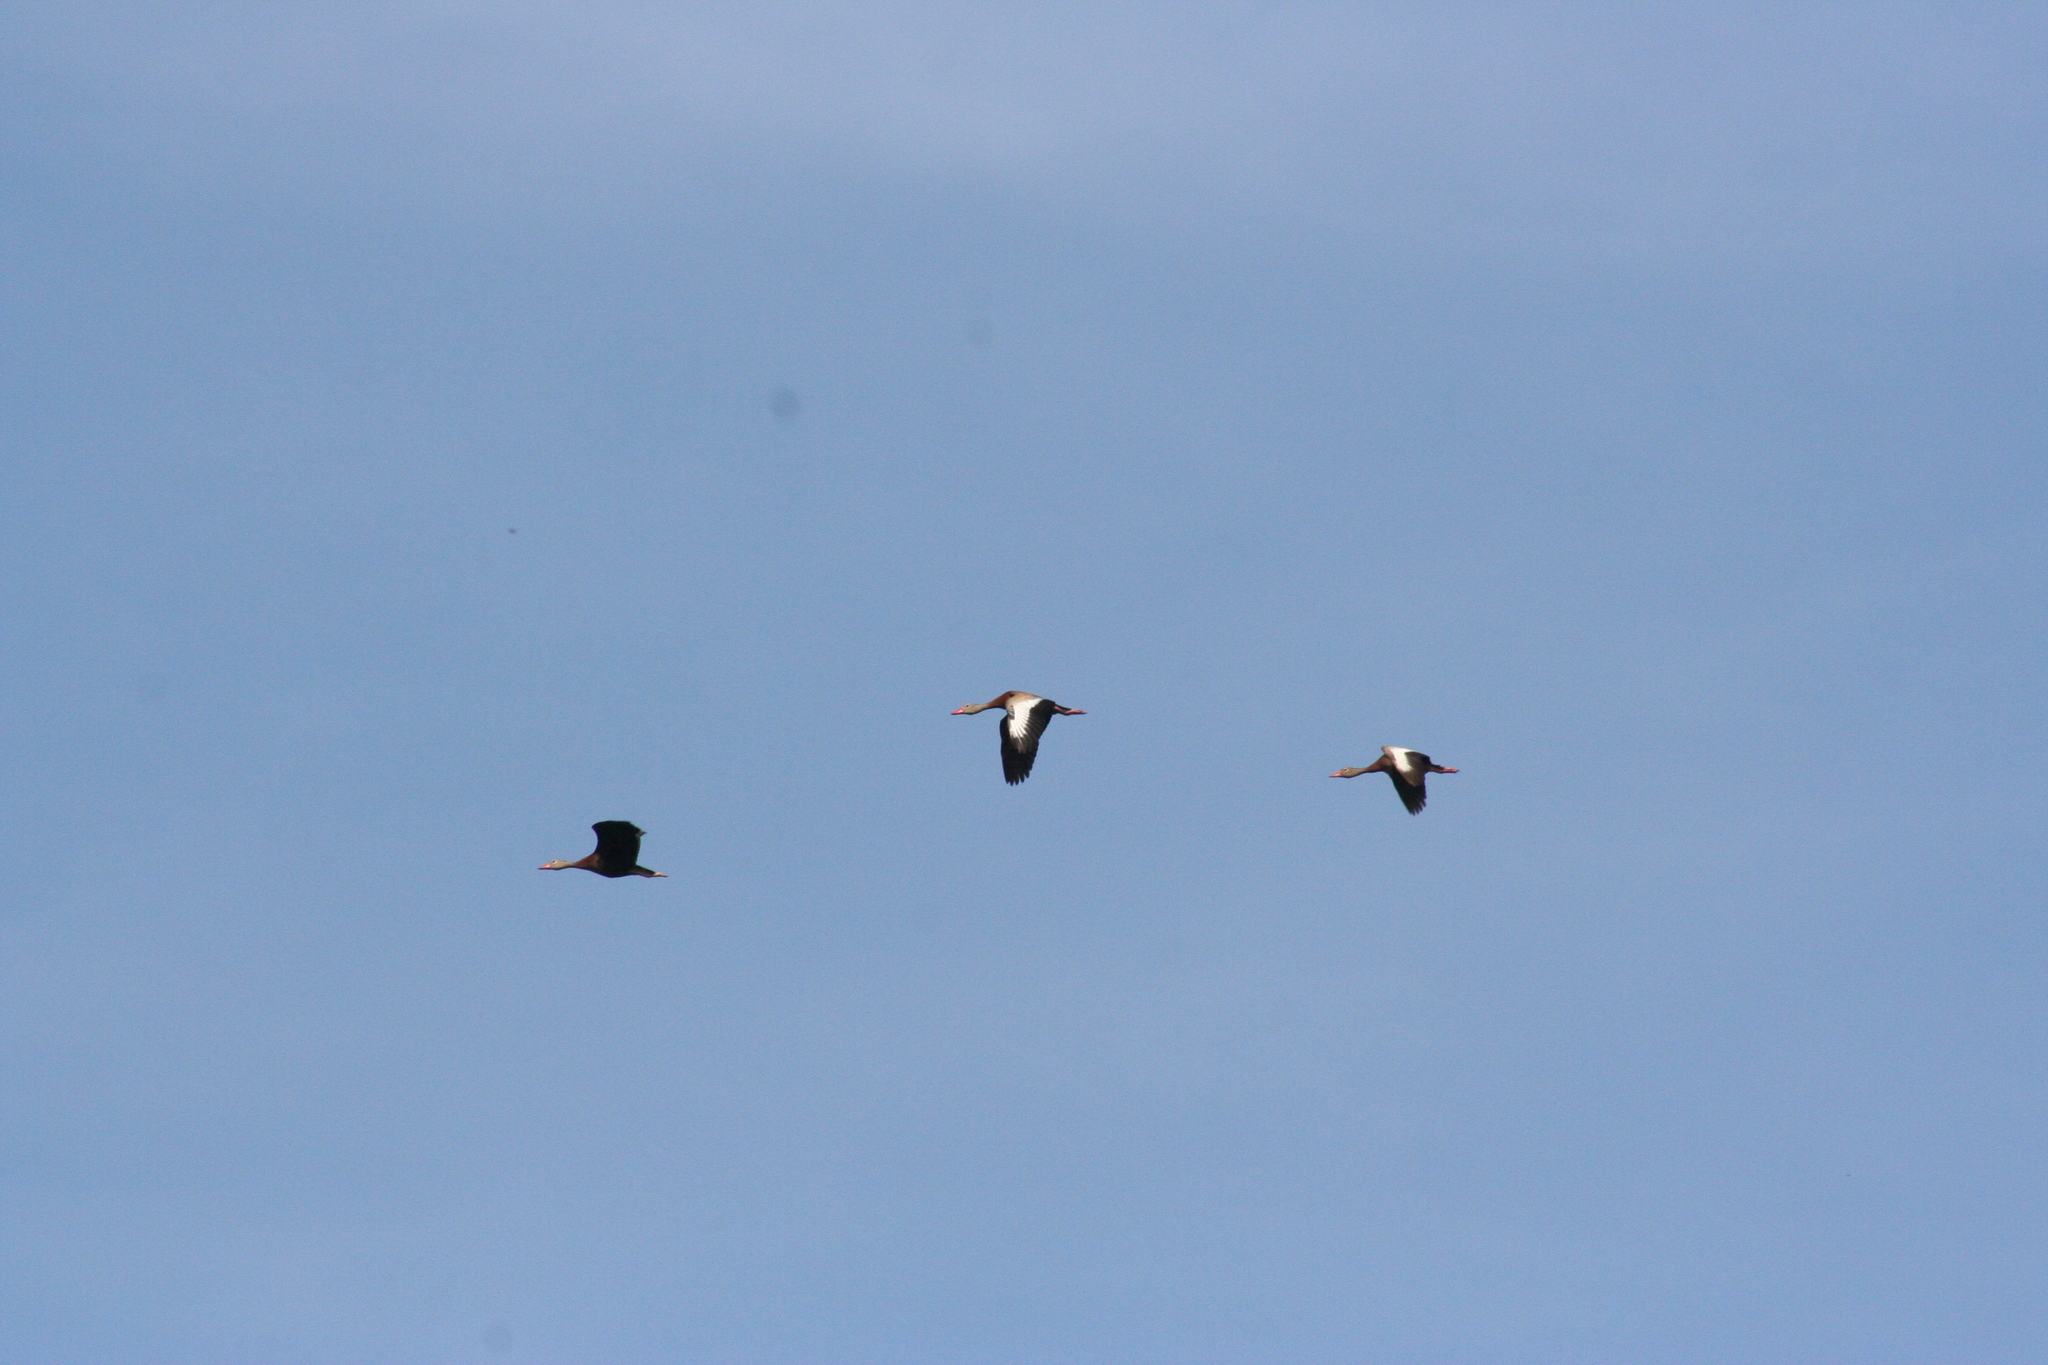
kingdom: Animalia
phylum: Chordata
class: Aves
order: Anseriformes
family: Anatidae
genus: Dendrocygna
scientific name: Dendrocygna autumnalis
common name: Black-bellied whistling duck
